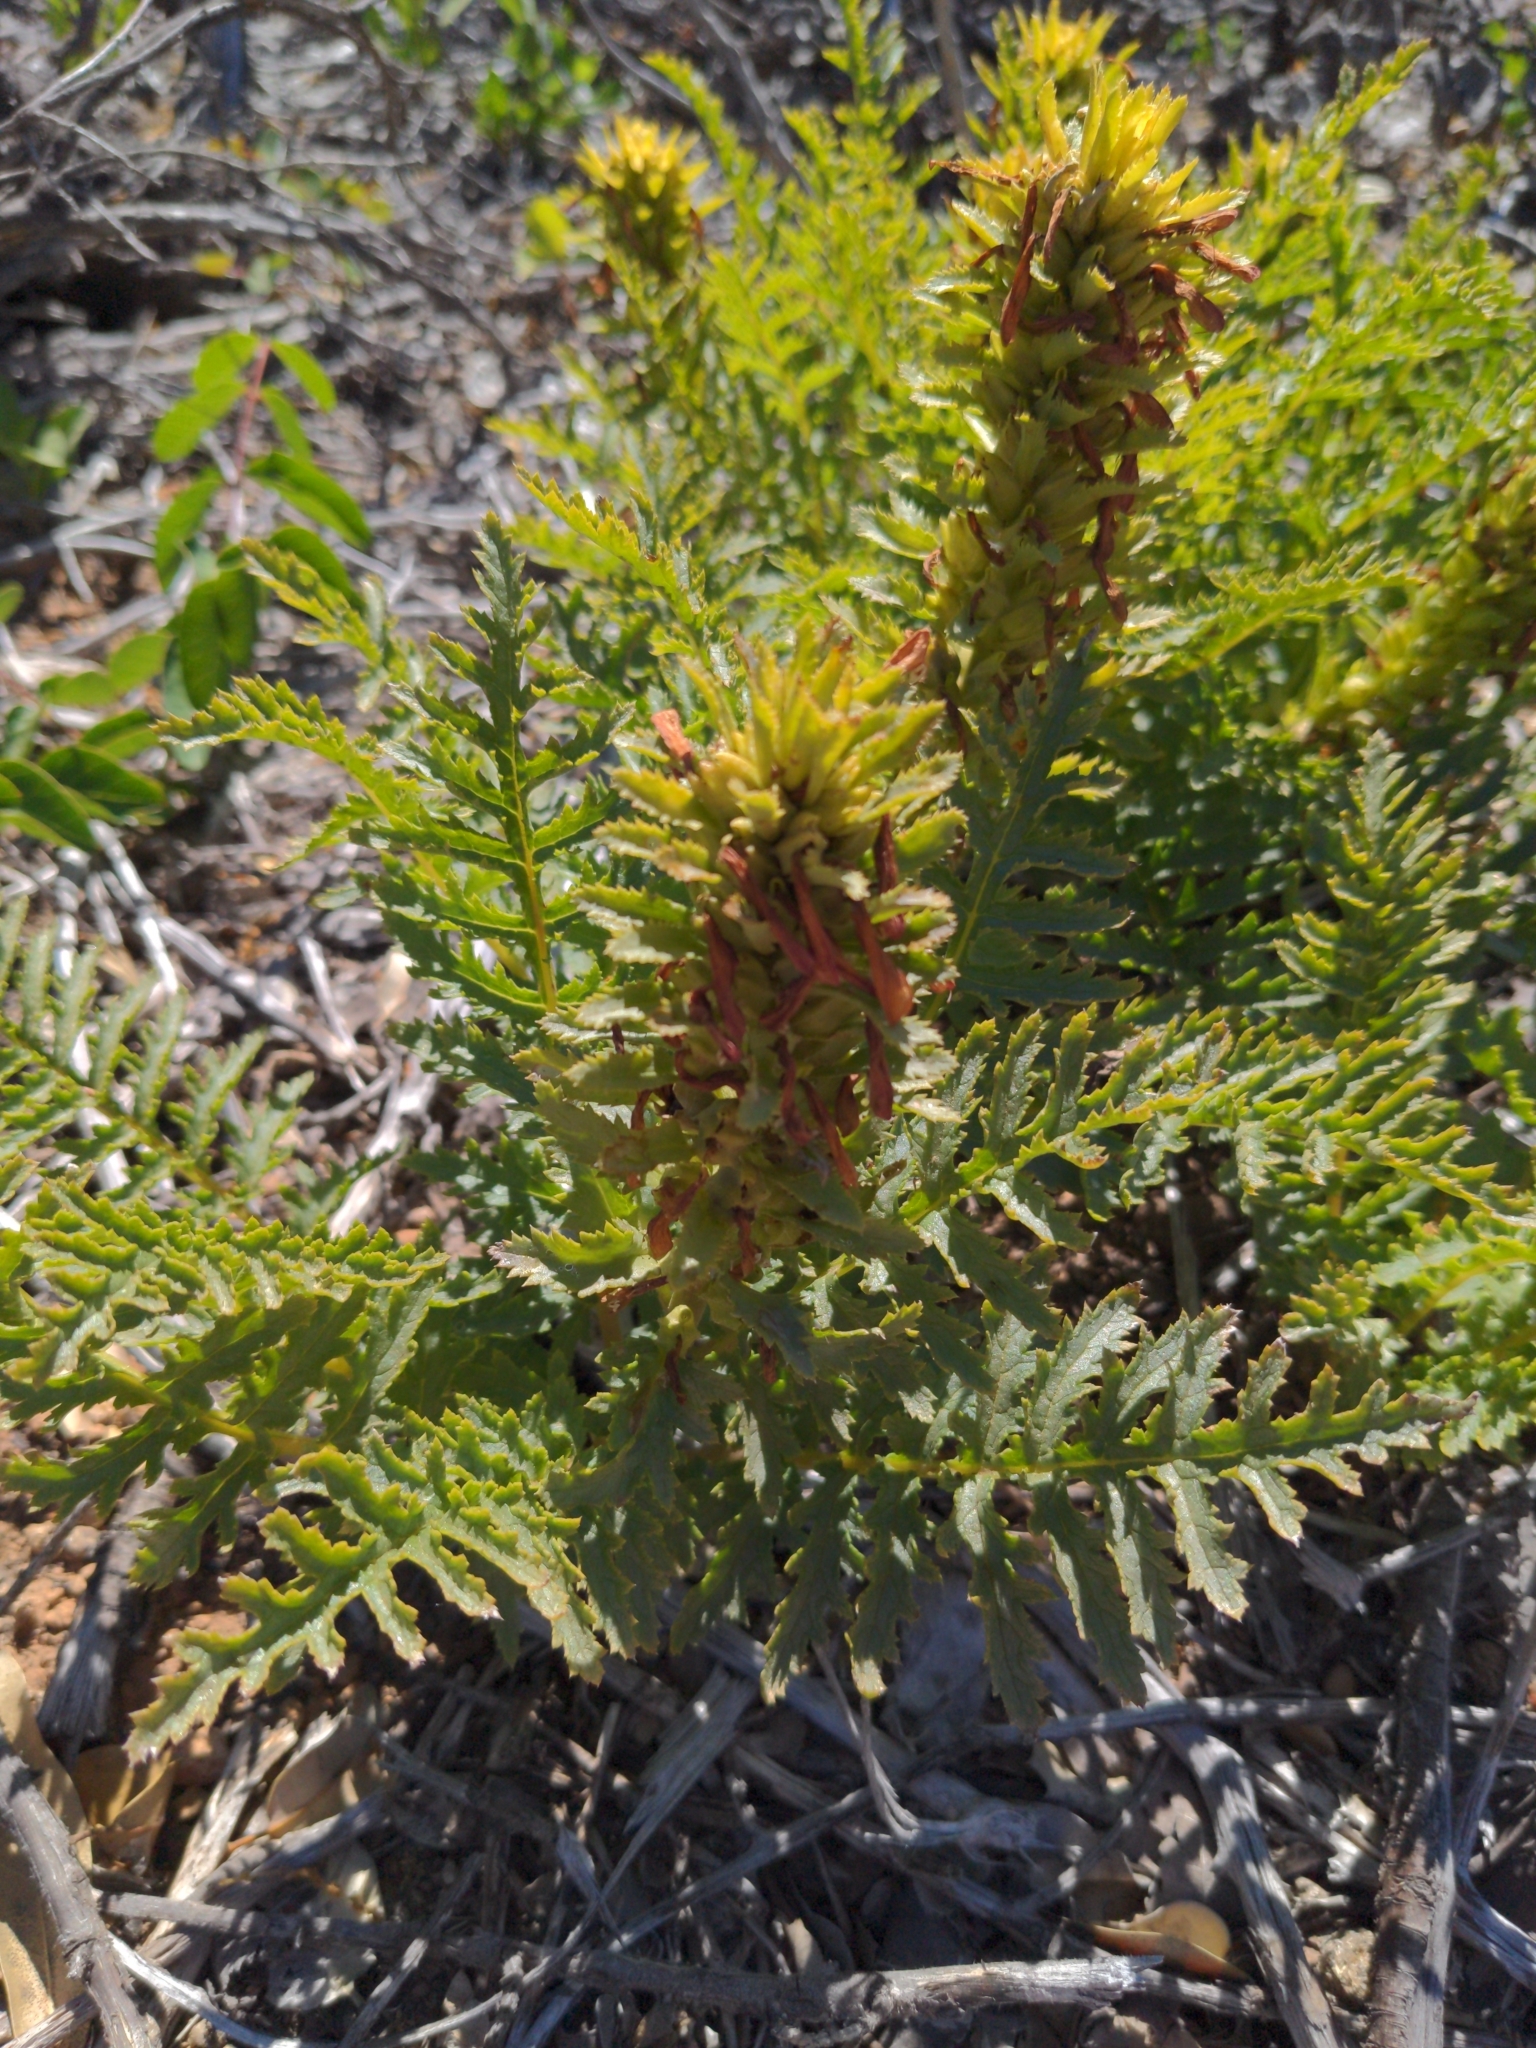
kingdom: Plantae
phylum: Tracheophyta
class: Magnoliopsida
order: Lamiales
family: Orobanchaceae
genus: Pedicularis
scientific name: Pedicularis densiflora
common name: Indian warrior
